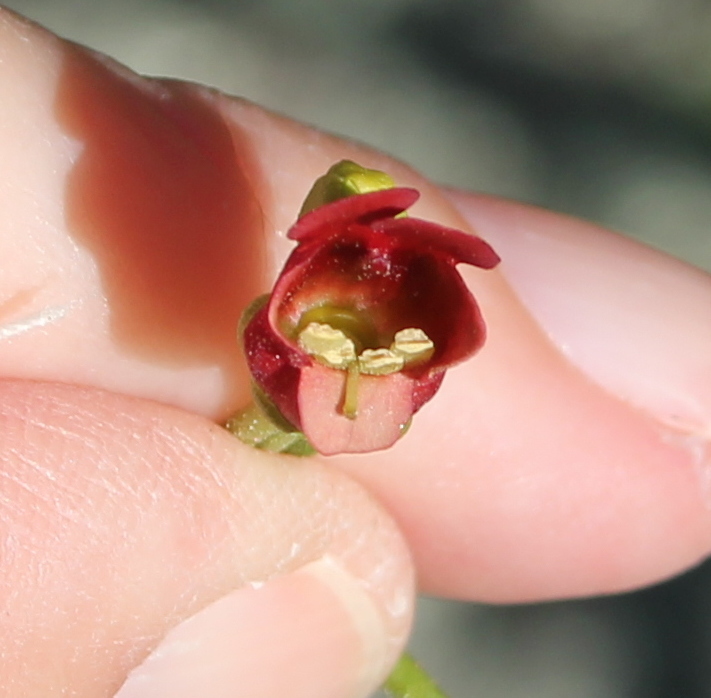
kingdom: Plantae
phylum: Tracheophyta
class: Magnoliopsida
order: Lamiales
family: Scrophulariaceae
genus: Scrophularia
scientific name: Scrophularia californica
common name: California figwort
